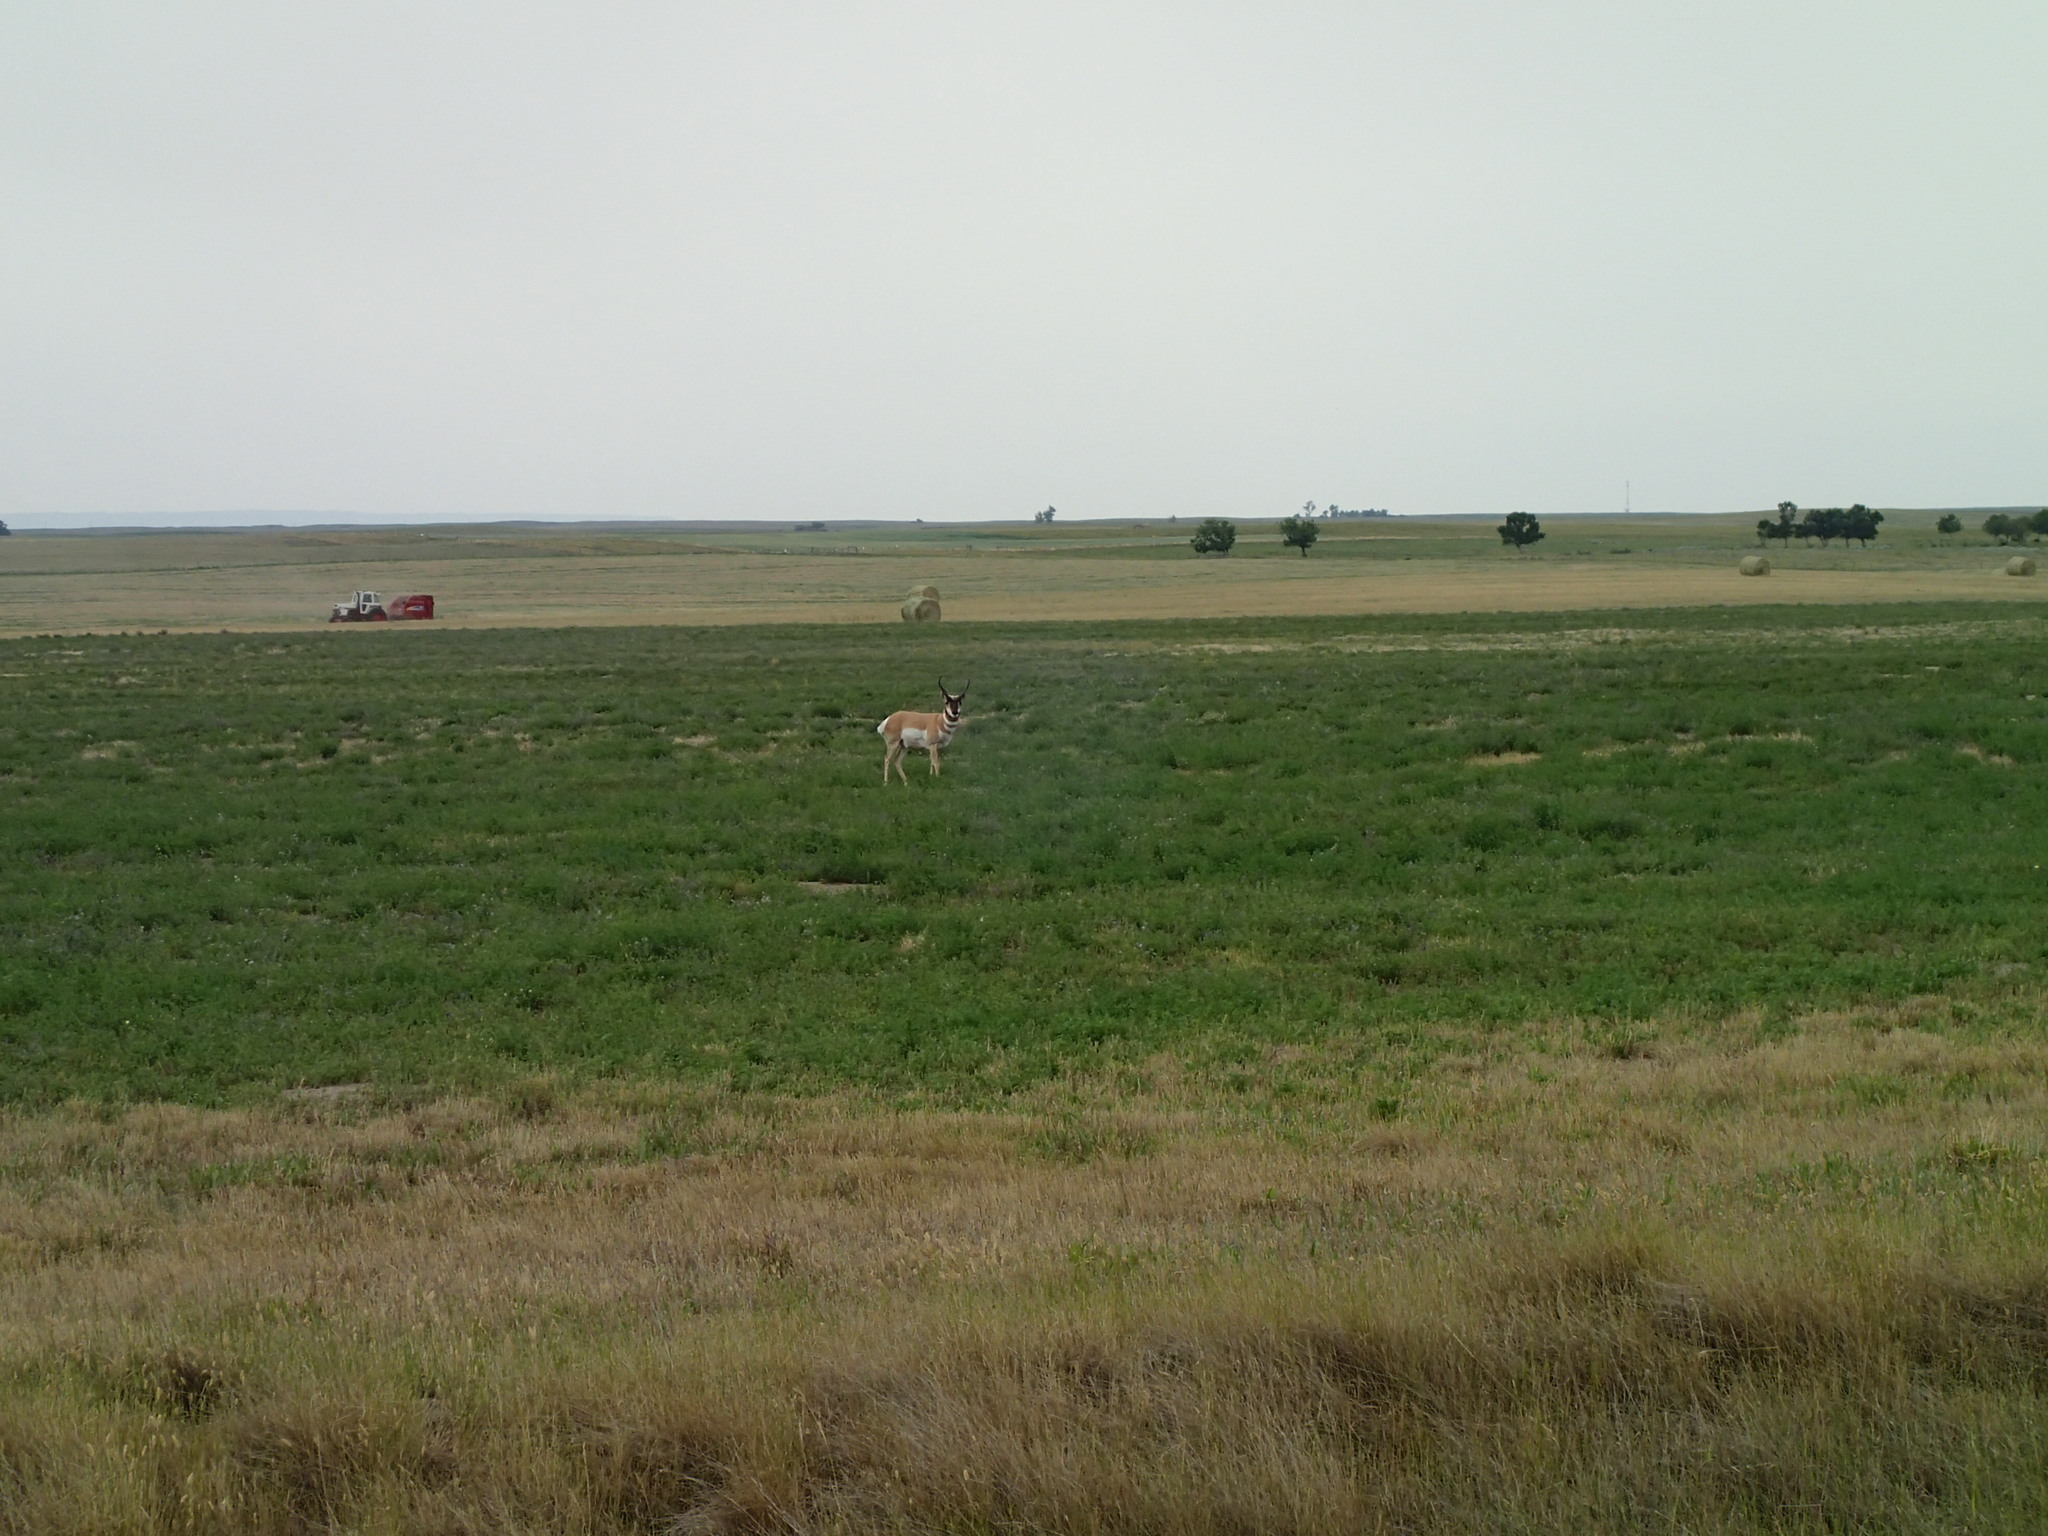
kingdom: Animalia
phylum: Chordata
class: Mammalia
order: Artiodactyla
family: Antilocapridae
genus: Antilocapra
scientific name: Antilocapra americana
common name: Pronghorn
